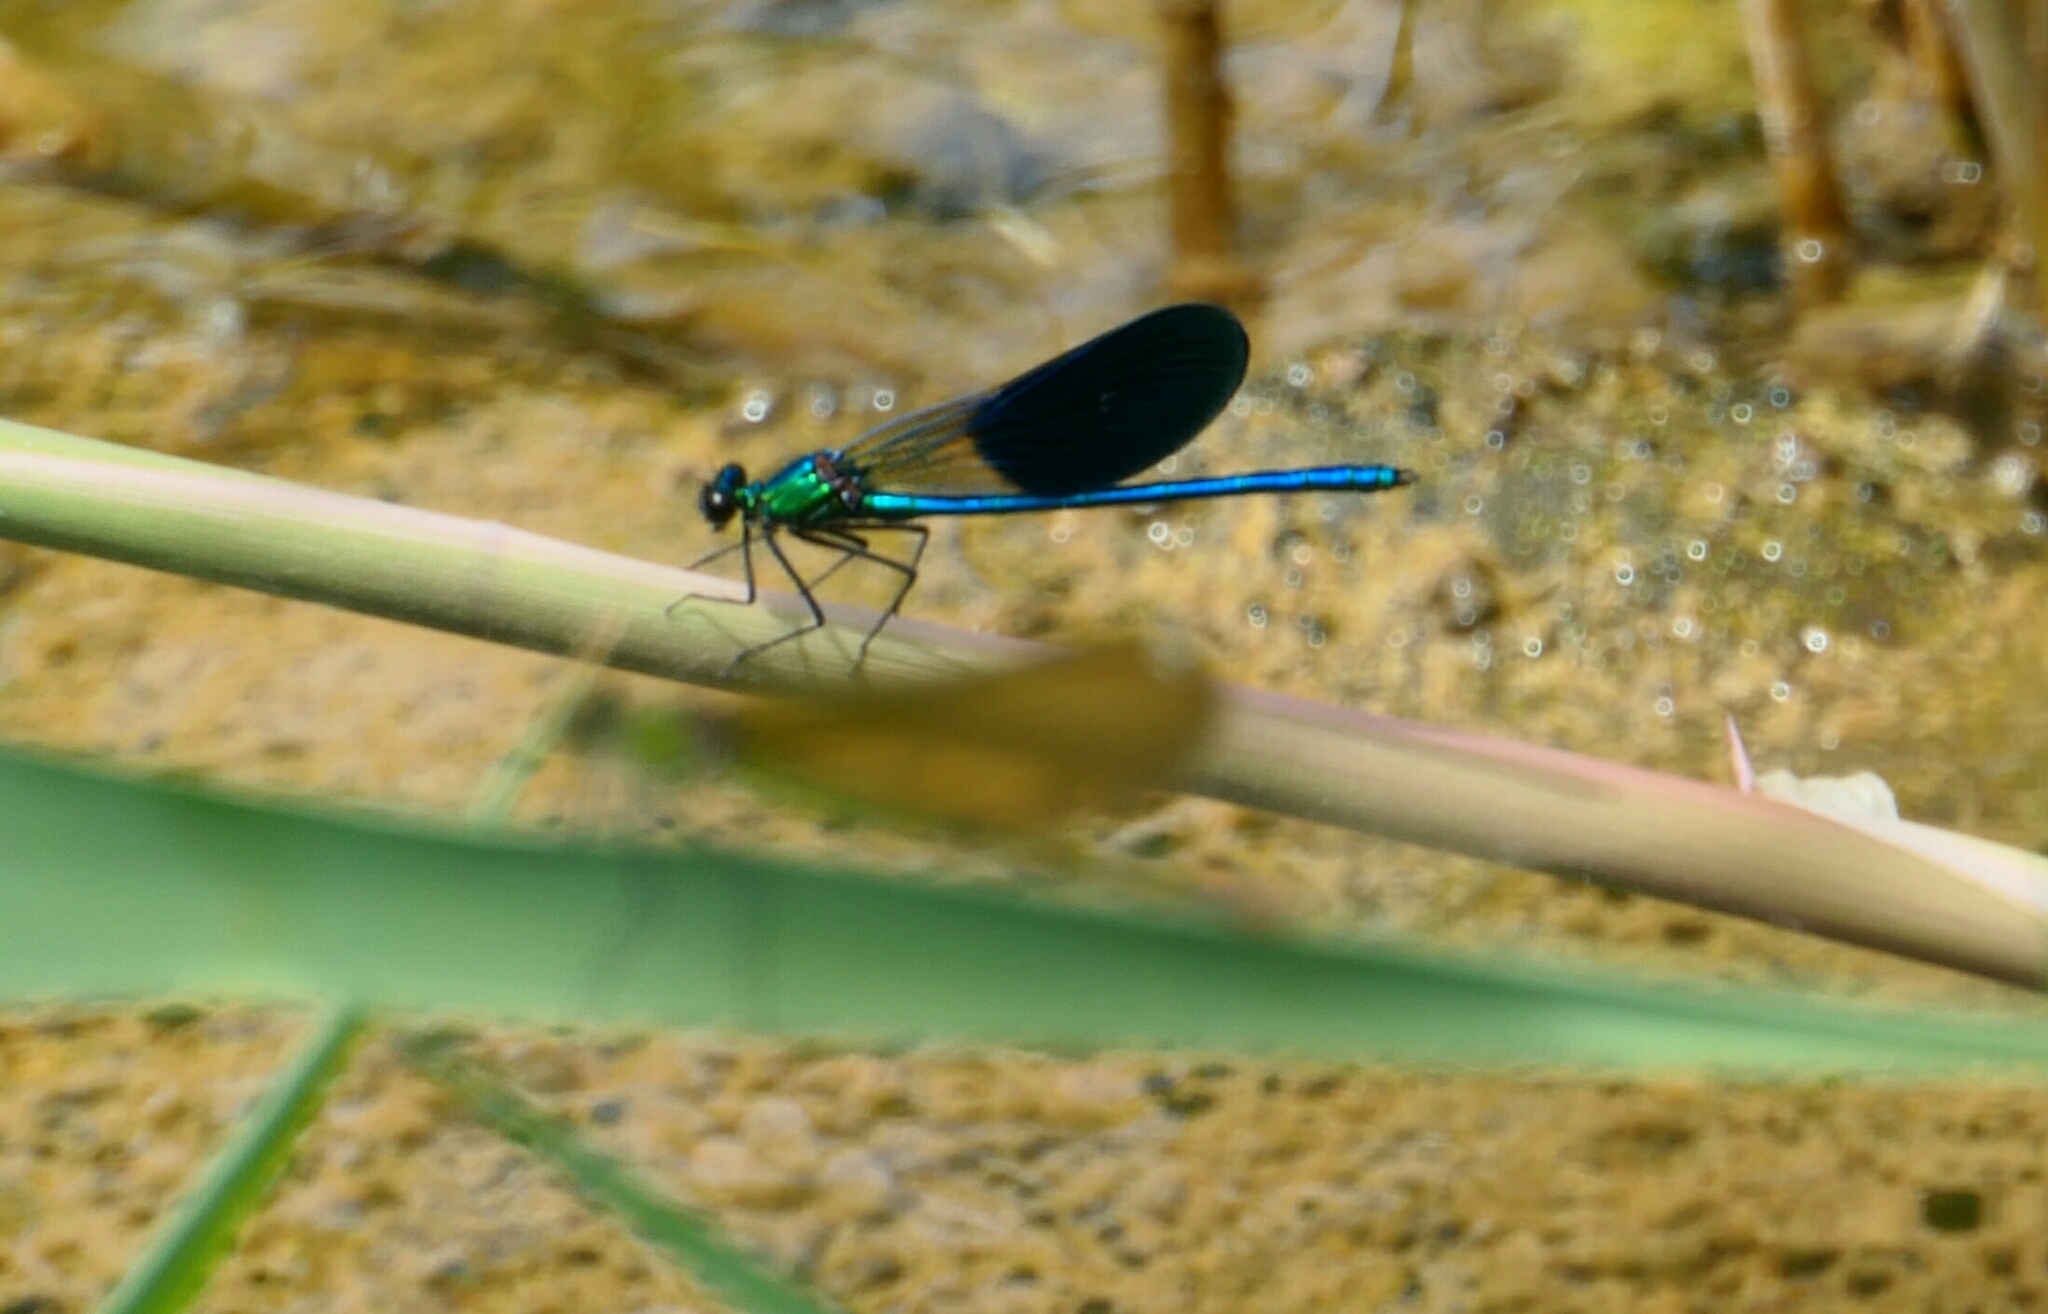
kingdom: Animalia
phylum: Arthropoda
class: Insecta
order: Odonata
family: Calopterygidae
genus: Calopteryx
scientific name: Calopteryx xanthostoma
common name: Western demoiselle
